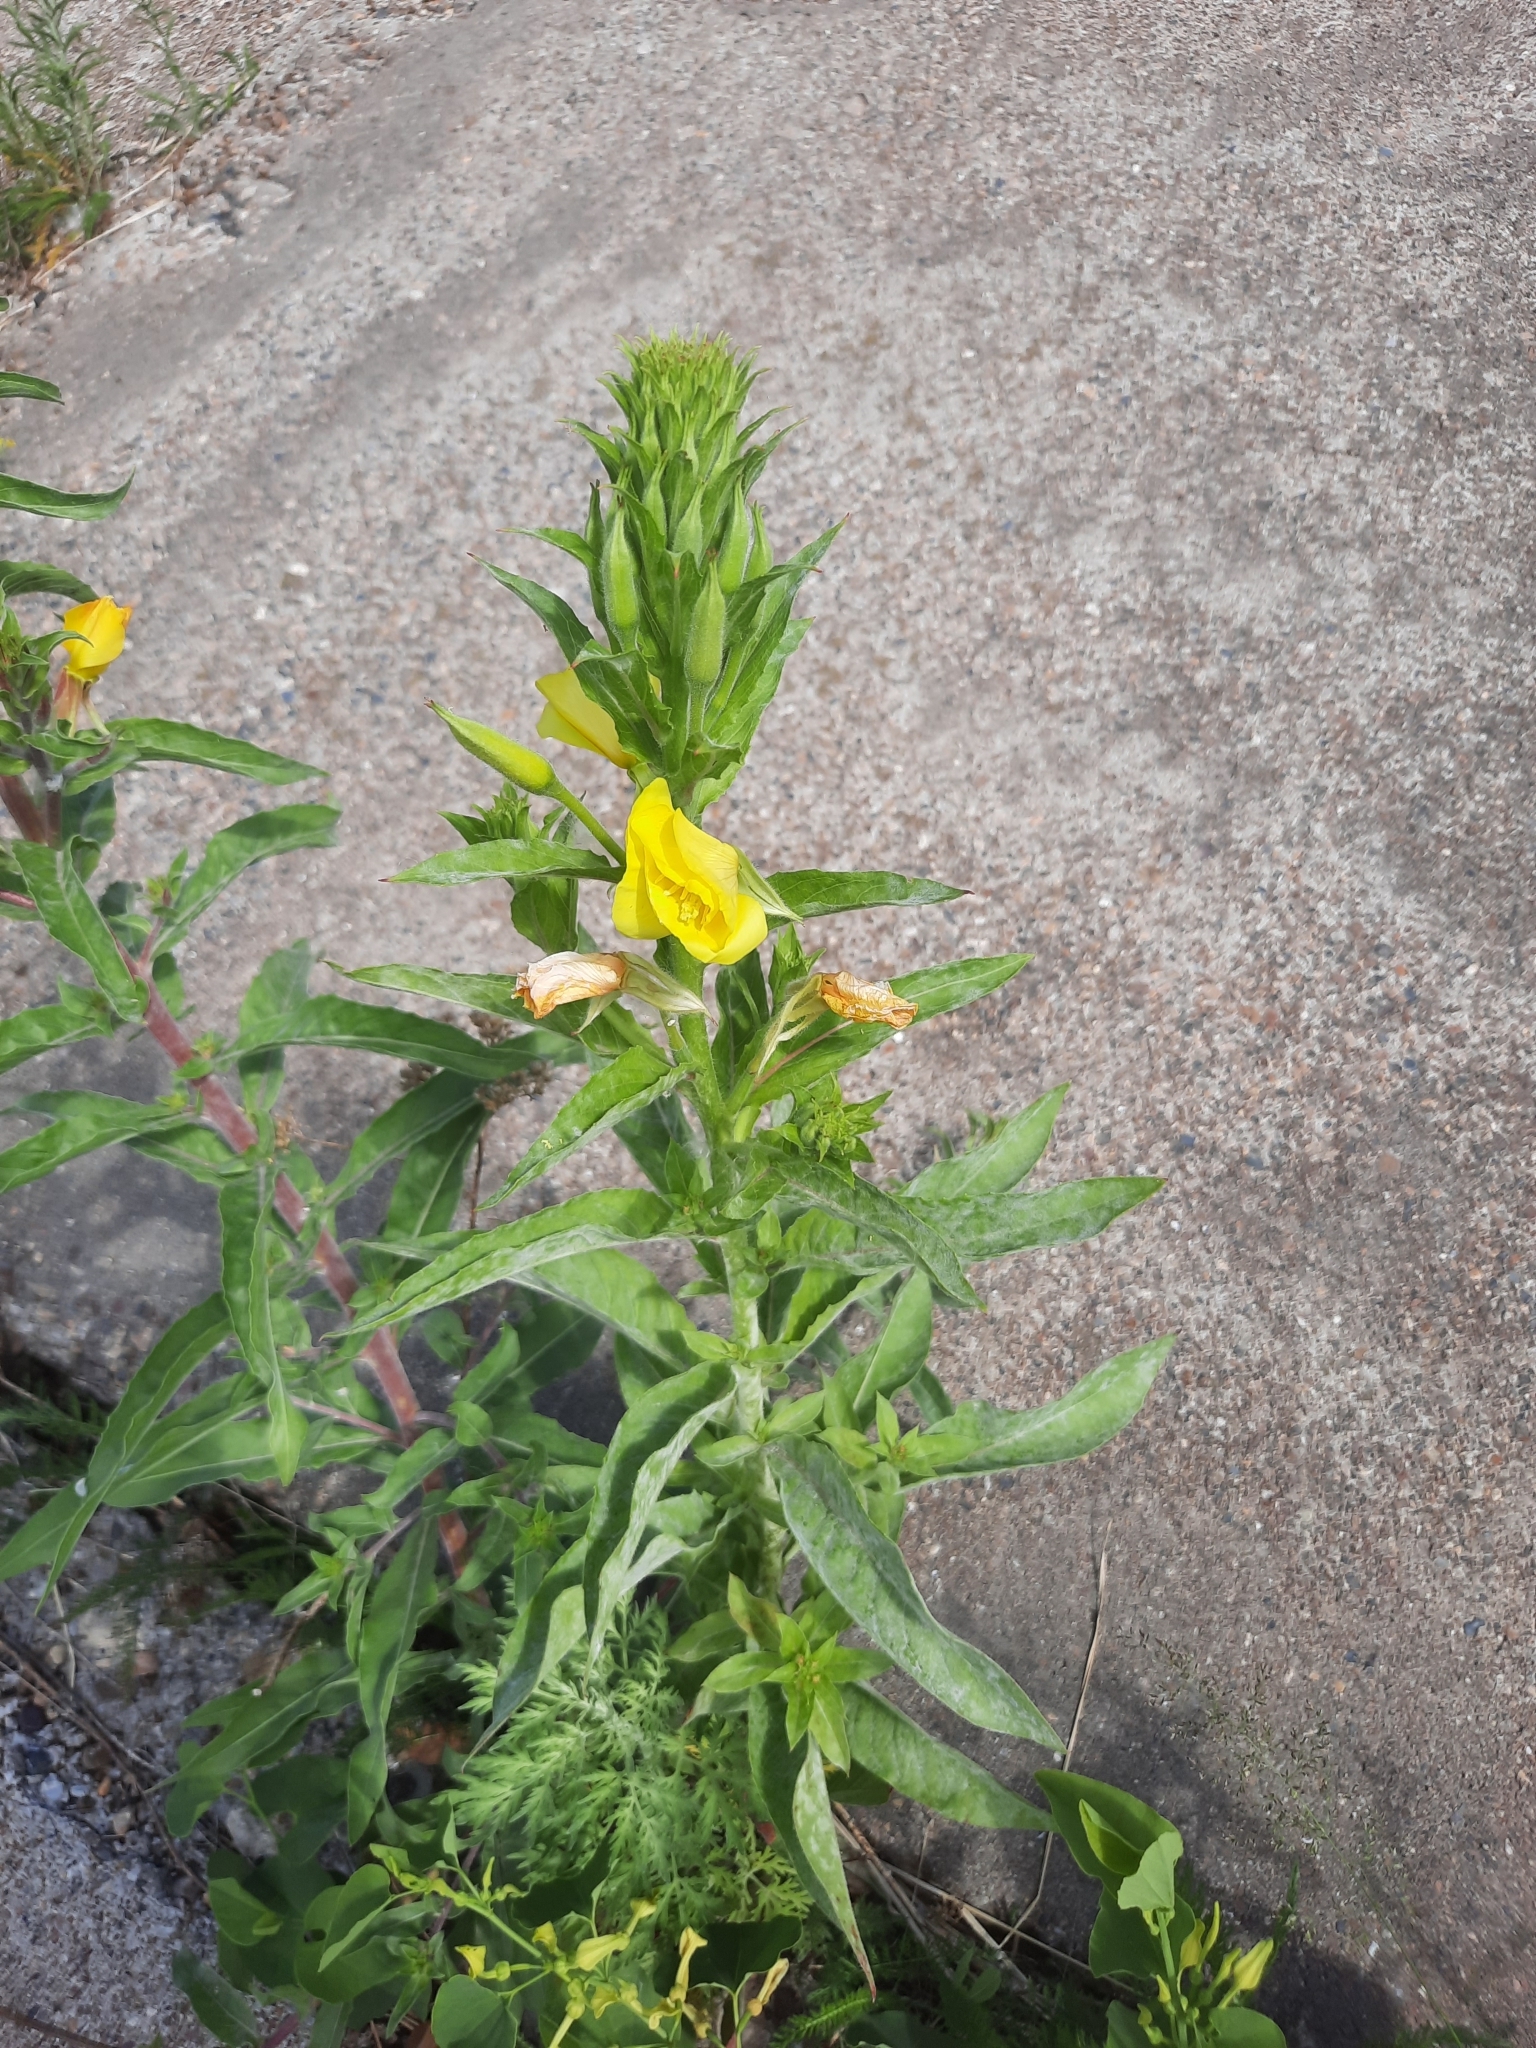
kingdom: Plantae
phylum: Tracheophyta
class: Magnoliopsida
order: Myrtales
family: Onagraceae
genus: Oenothera
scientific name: Oenothera biennis
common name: Common evening-primrose
